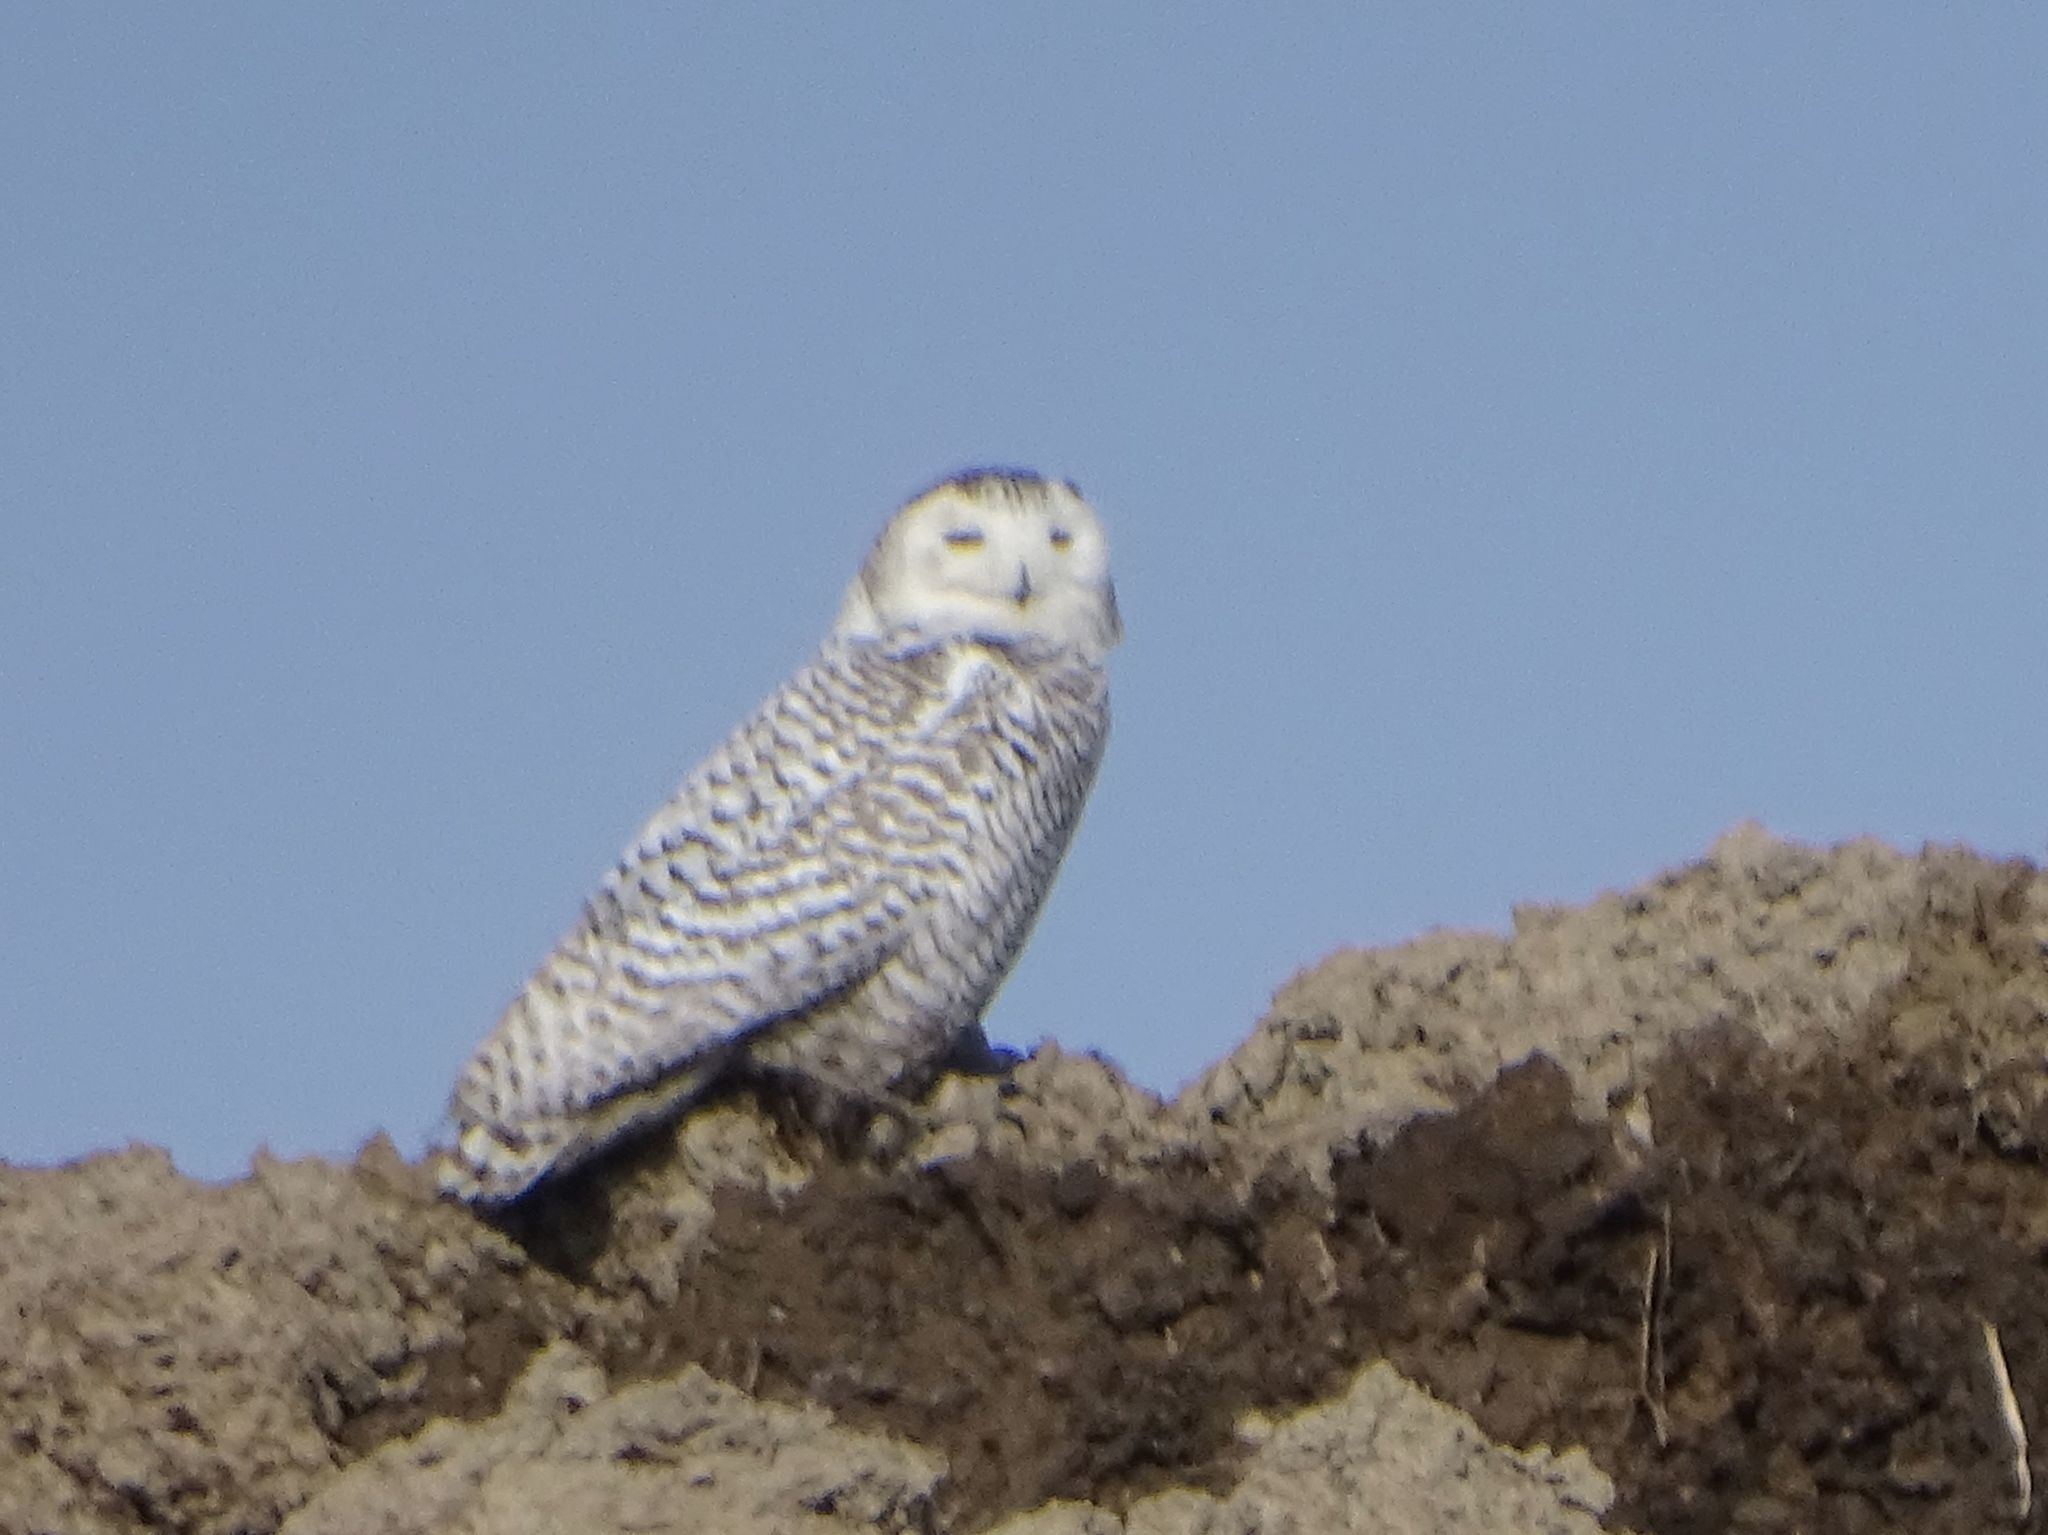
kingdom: Animalia
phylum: Chordata
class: Aves
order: Strigiformes
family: Strigidae
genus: Bubo
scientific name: Bubo scandiacus
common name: Snowy owl
